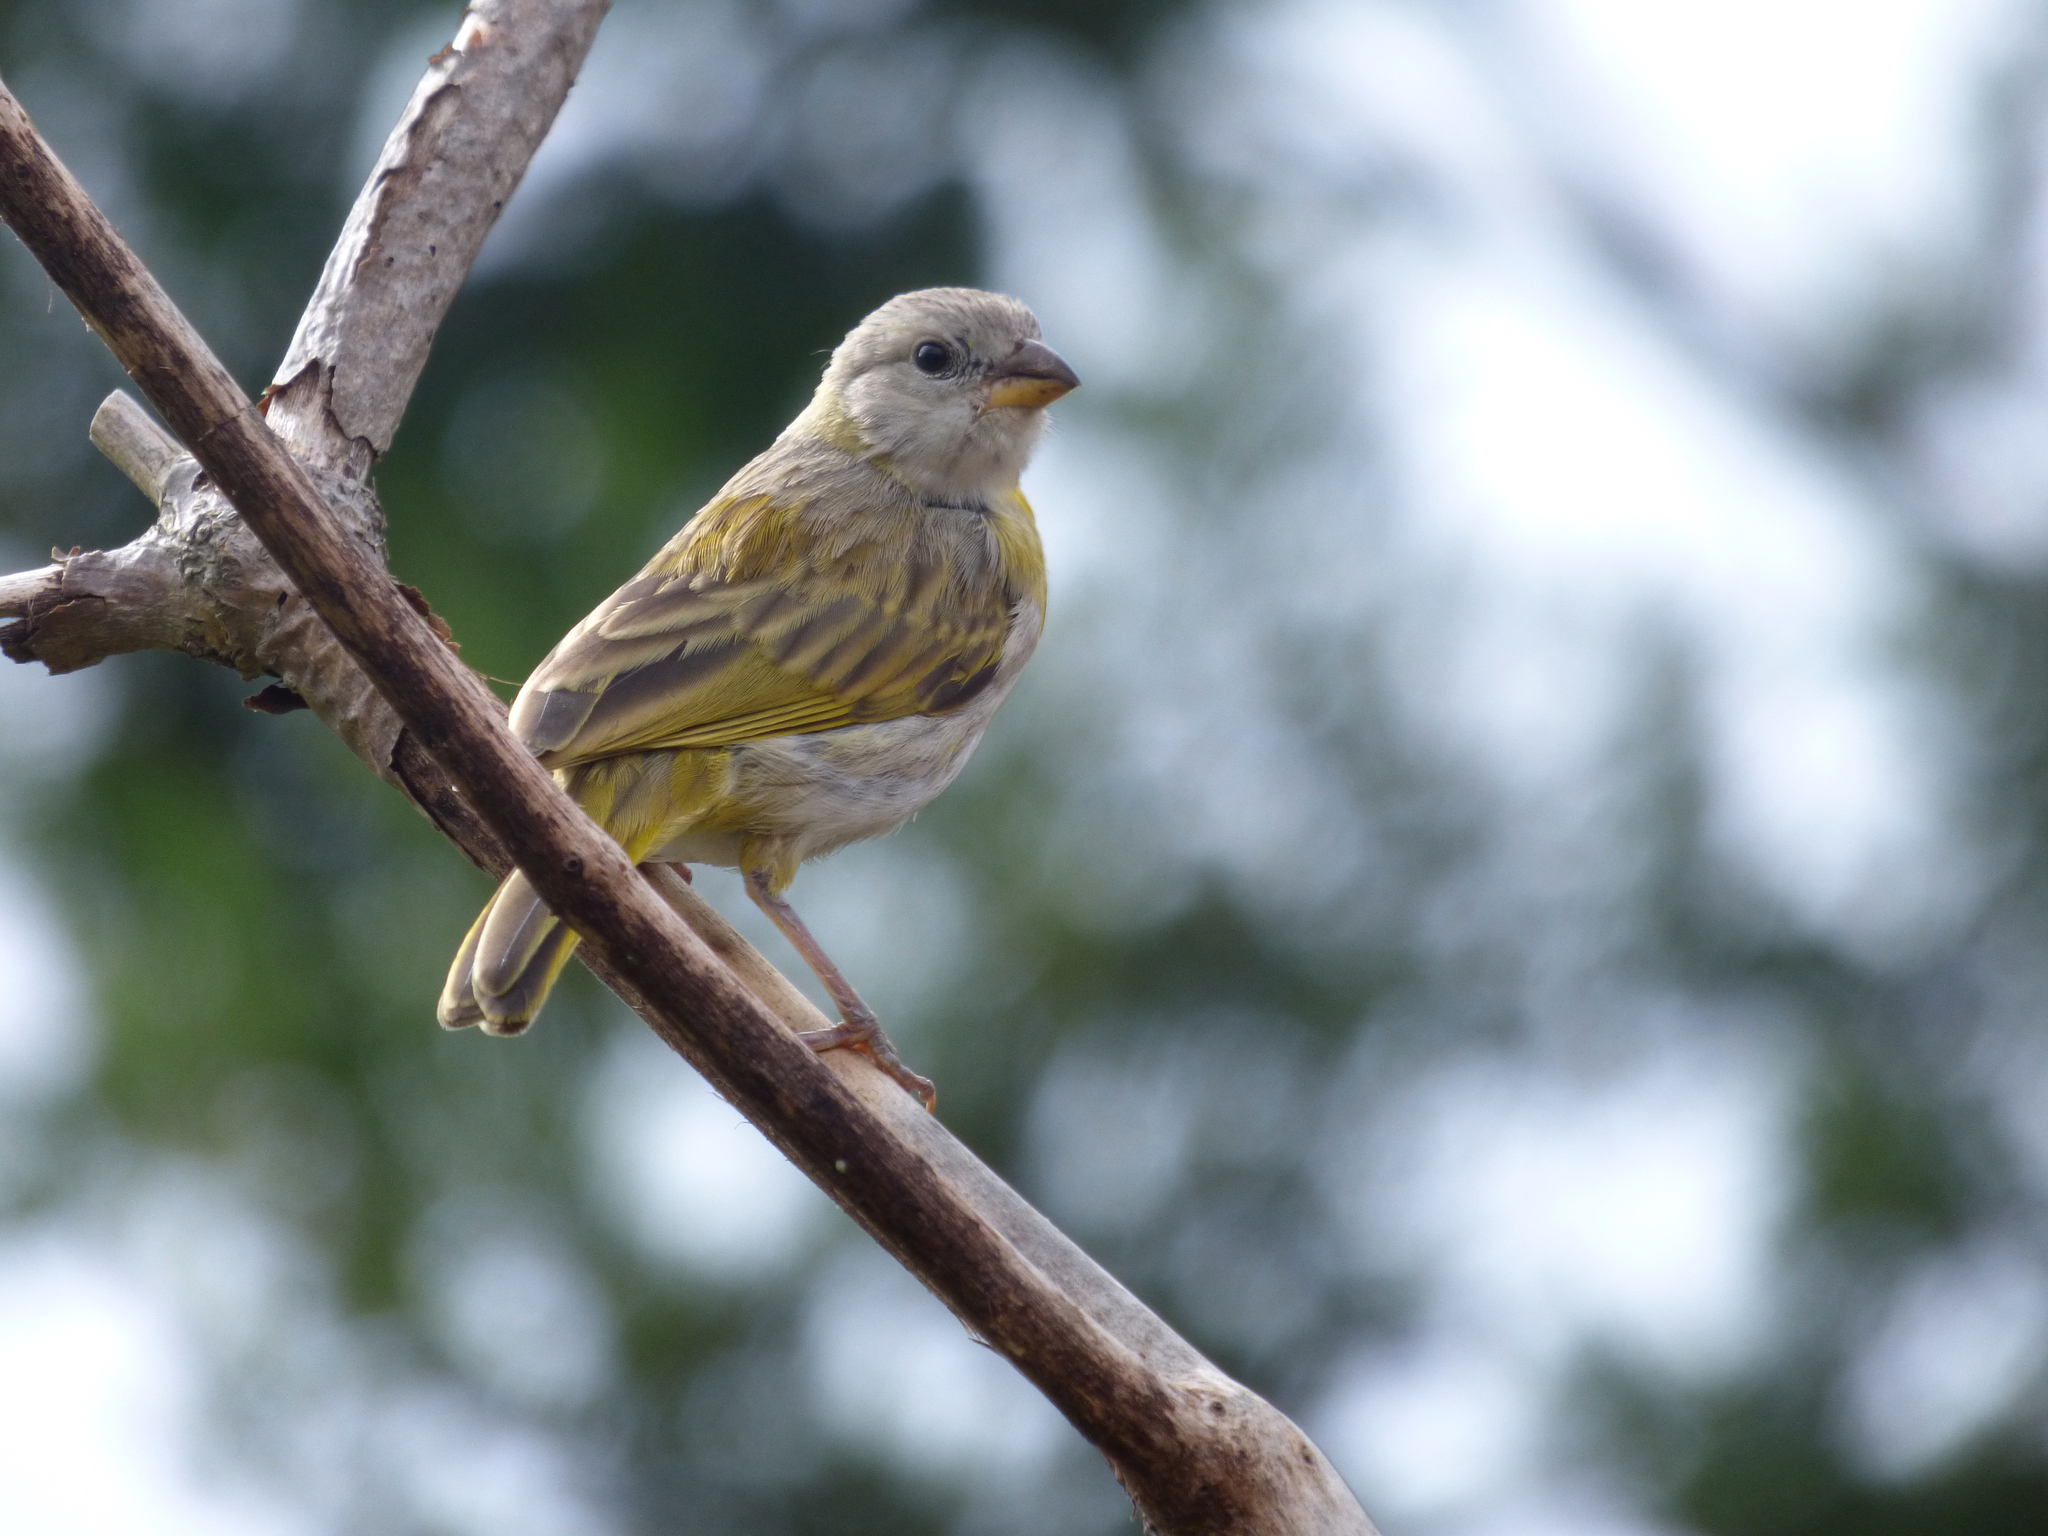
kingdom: Animalia
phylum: Chordata
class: Aves
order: Passeriformes
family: Thraupidae
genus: Sicalis
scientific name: Sicalis flaveola
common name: Saffron finch
